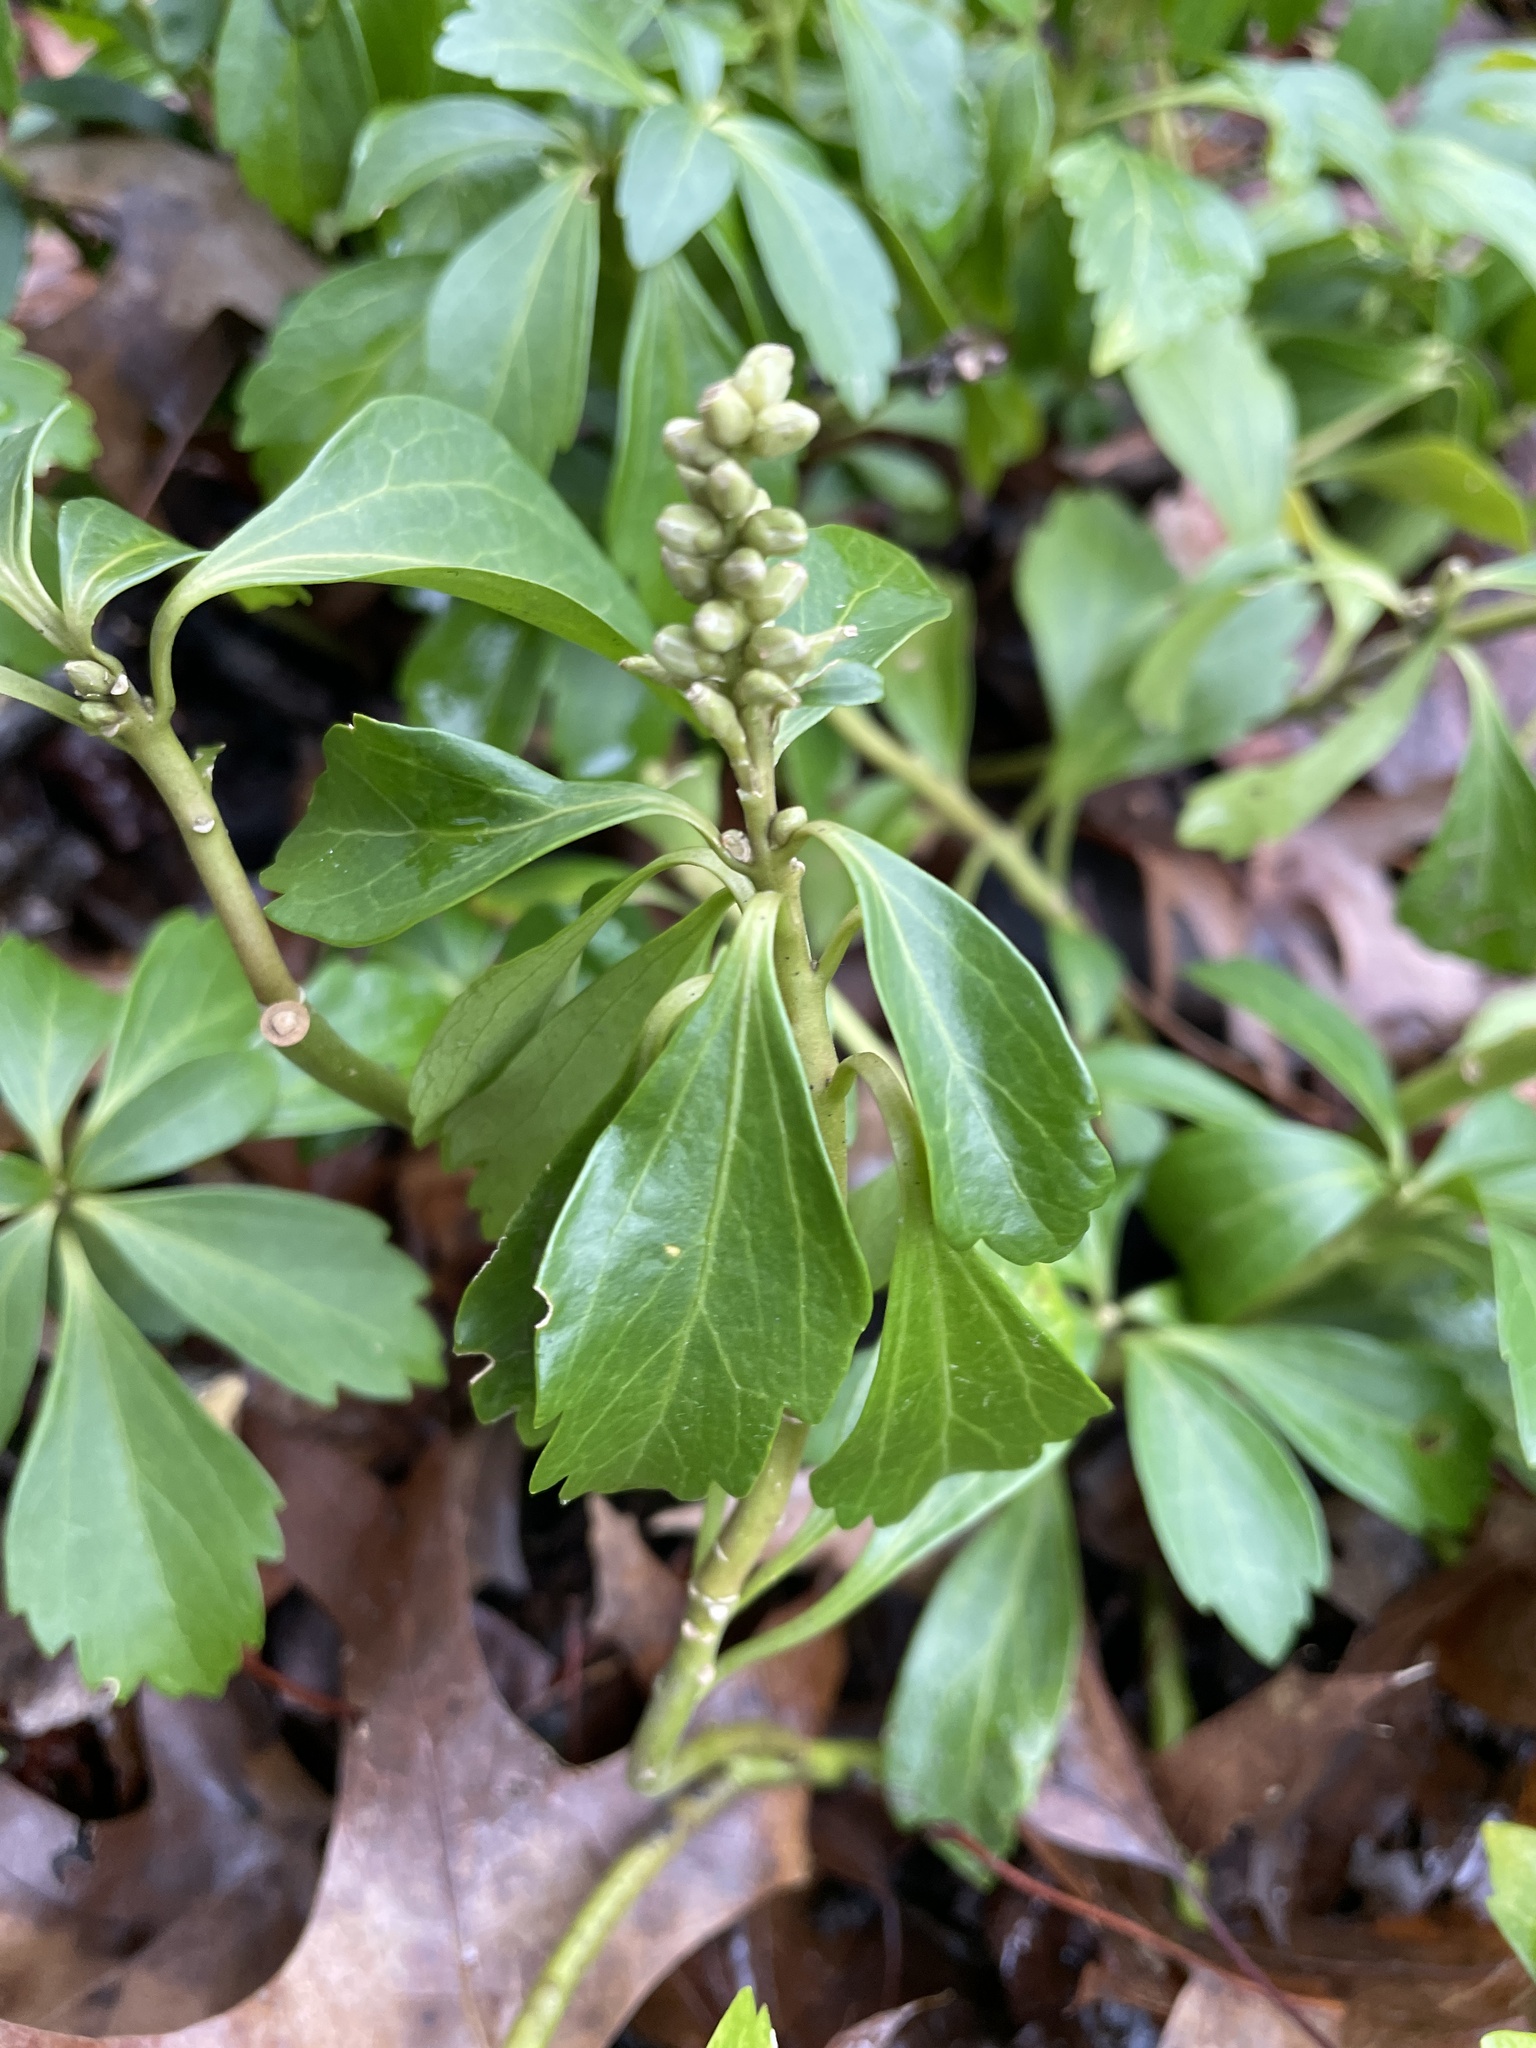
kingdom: Plantae
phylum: Tracheophyta
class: Magnoliopsida
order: Buxales
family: Buxaceae
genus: Pachysandra
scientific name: Pachysandra terminalis
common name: Japanese pachysandra
